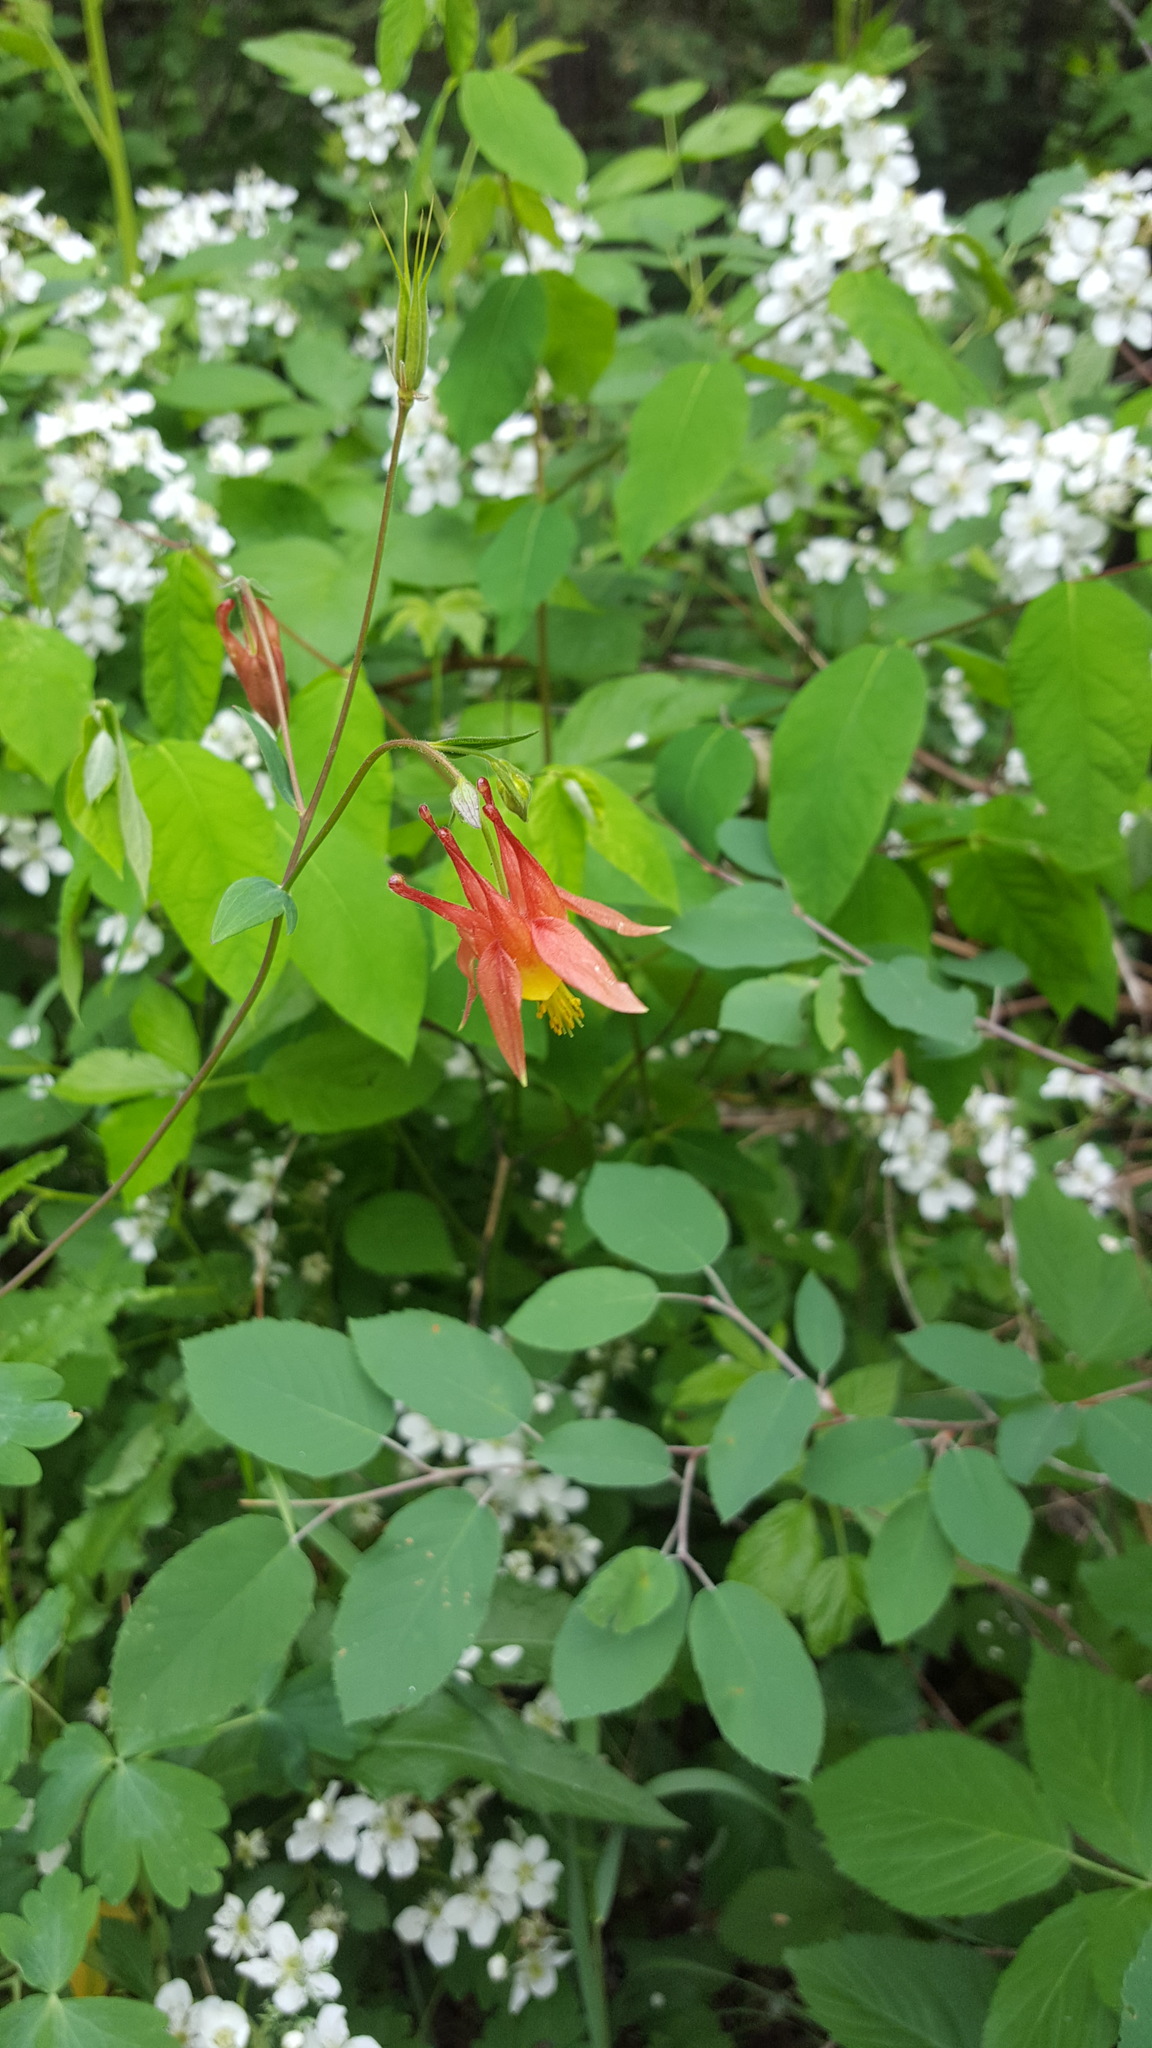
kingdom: Plantae
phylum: Tracheophyta
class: Magnoliopsida
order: Ranunculales
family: Ranunculaceae
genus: Aquilegia
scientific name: Aquilegia canadensis
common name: American columbine
